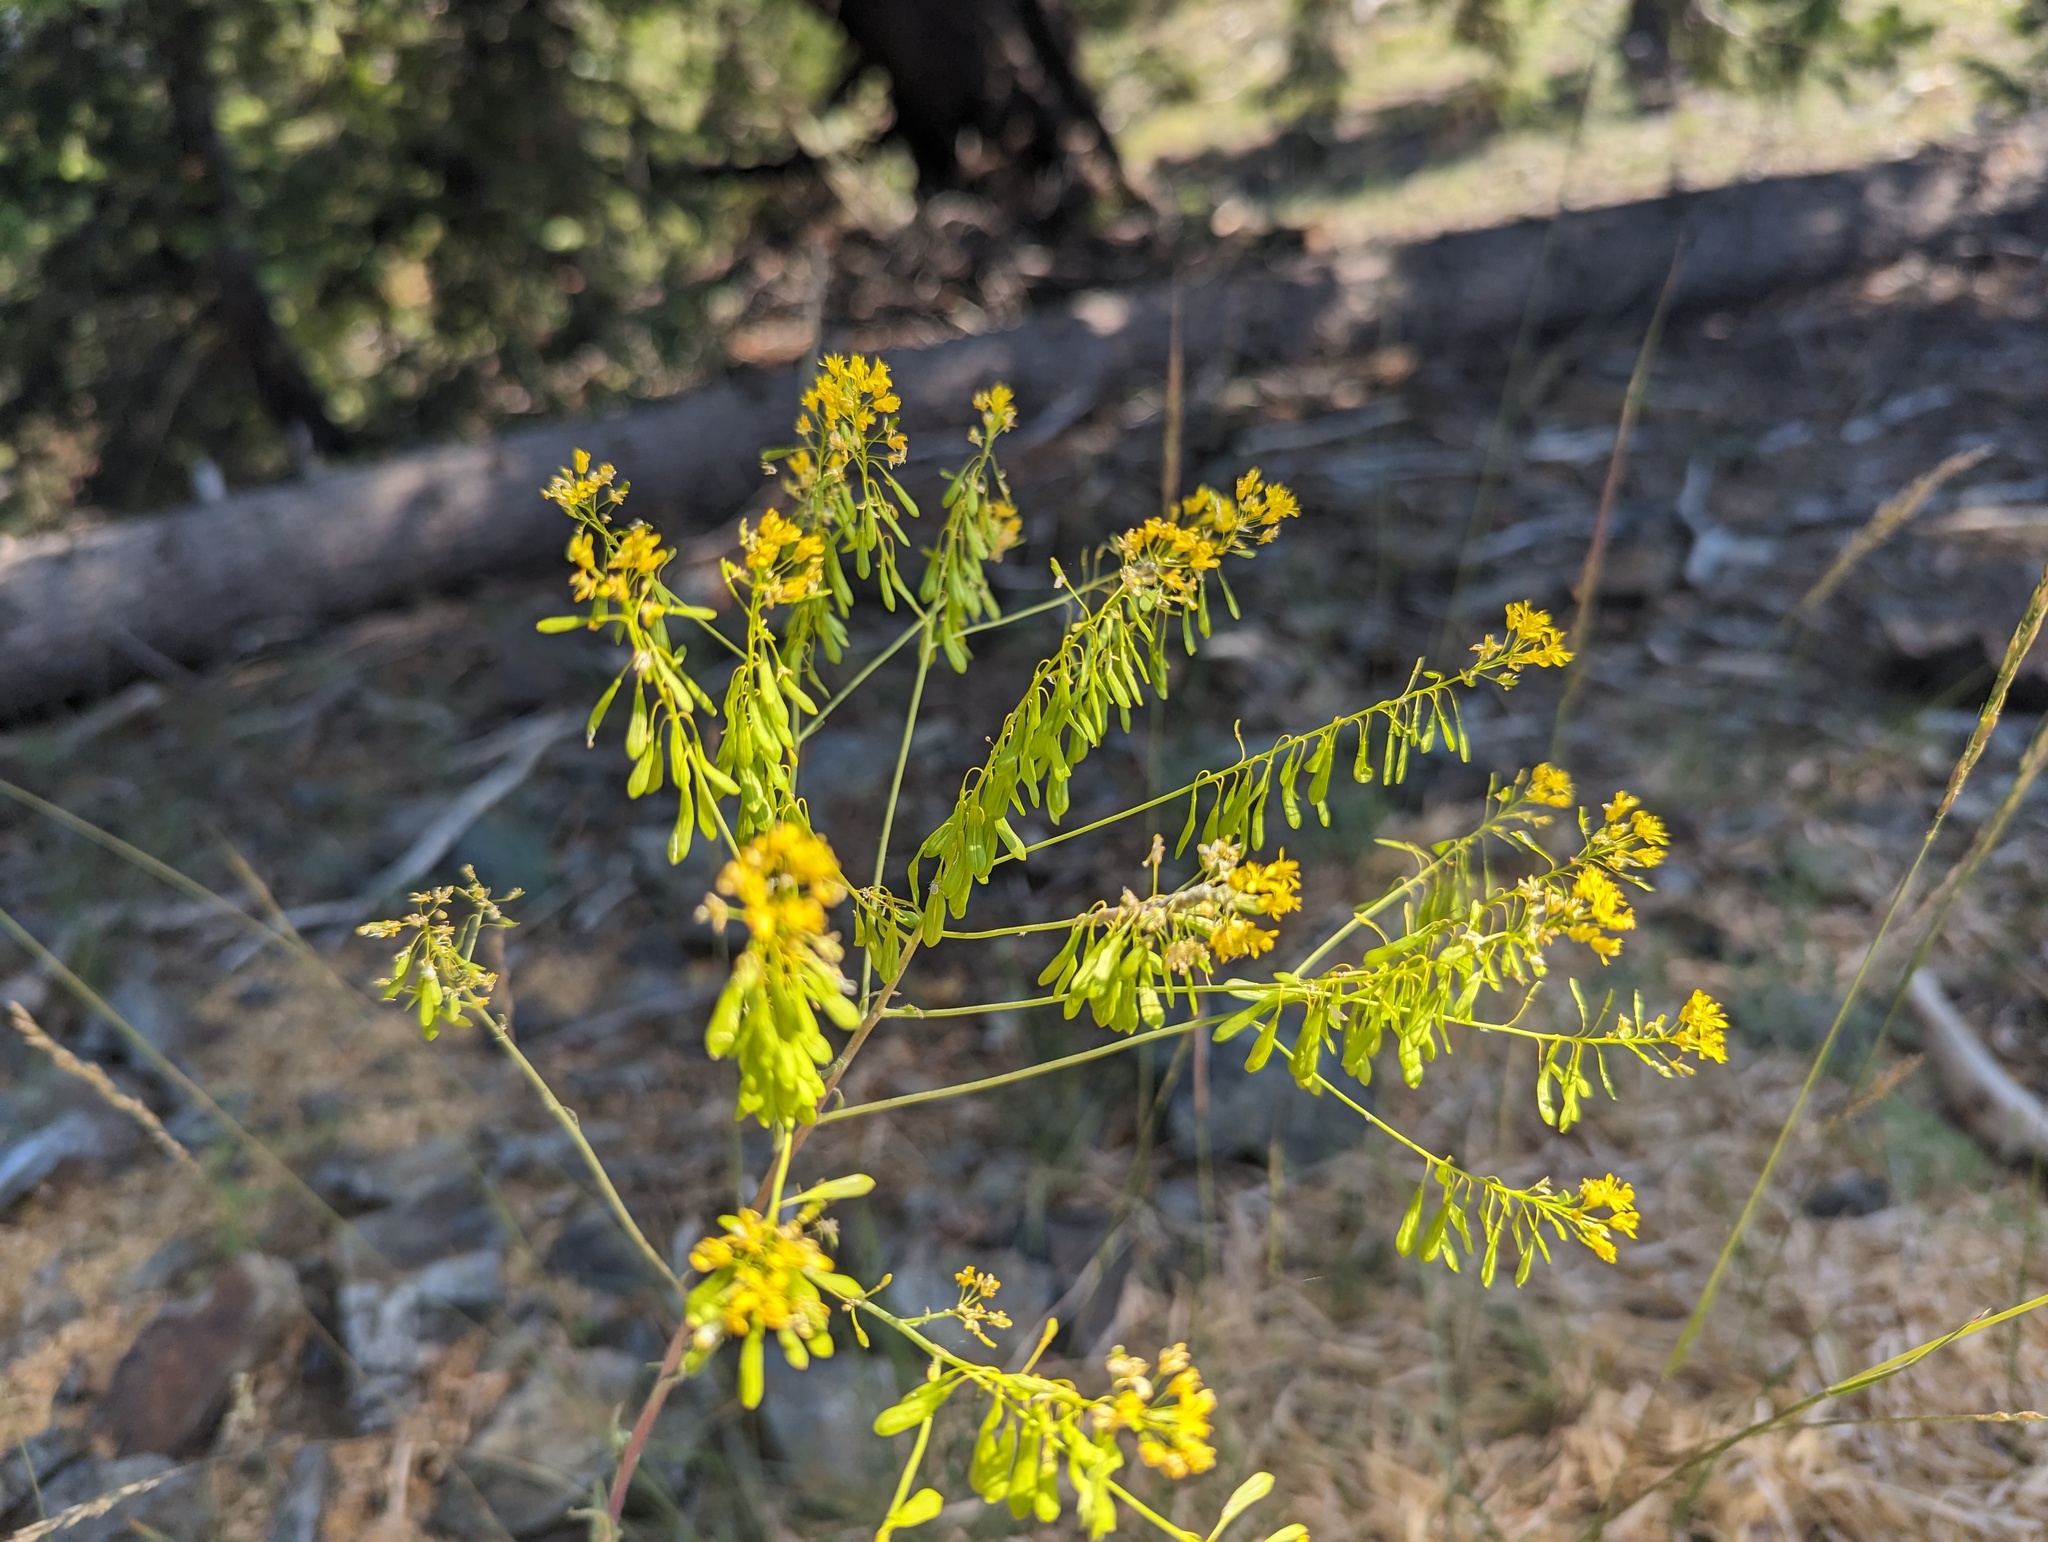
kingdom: Plantae
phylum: Tracheophyta
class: Magnoliopsida
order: Brassicales
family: Brassicaceae
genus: Isatis
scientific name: Isatis tinctoria
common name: Woad
